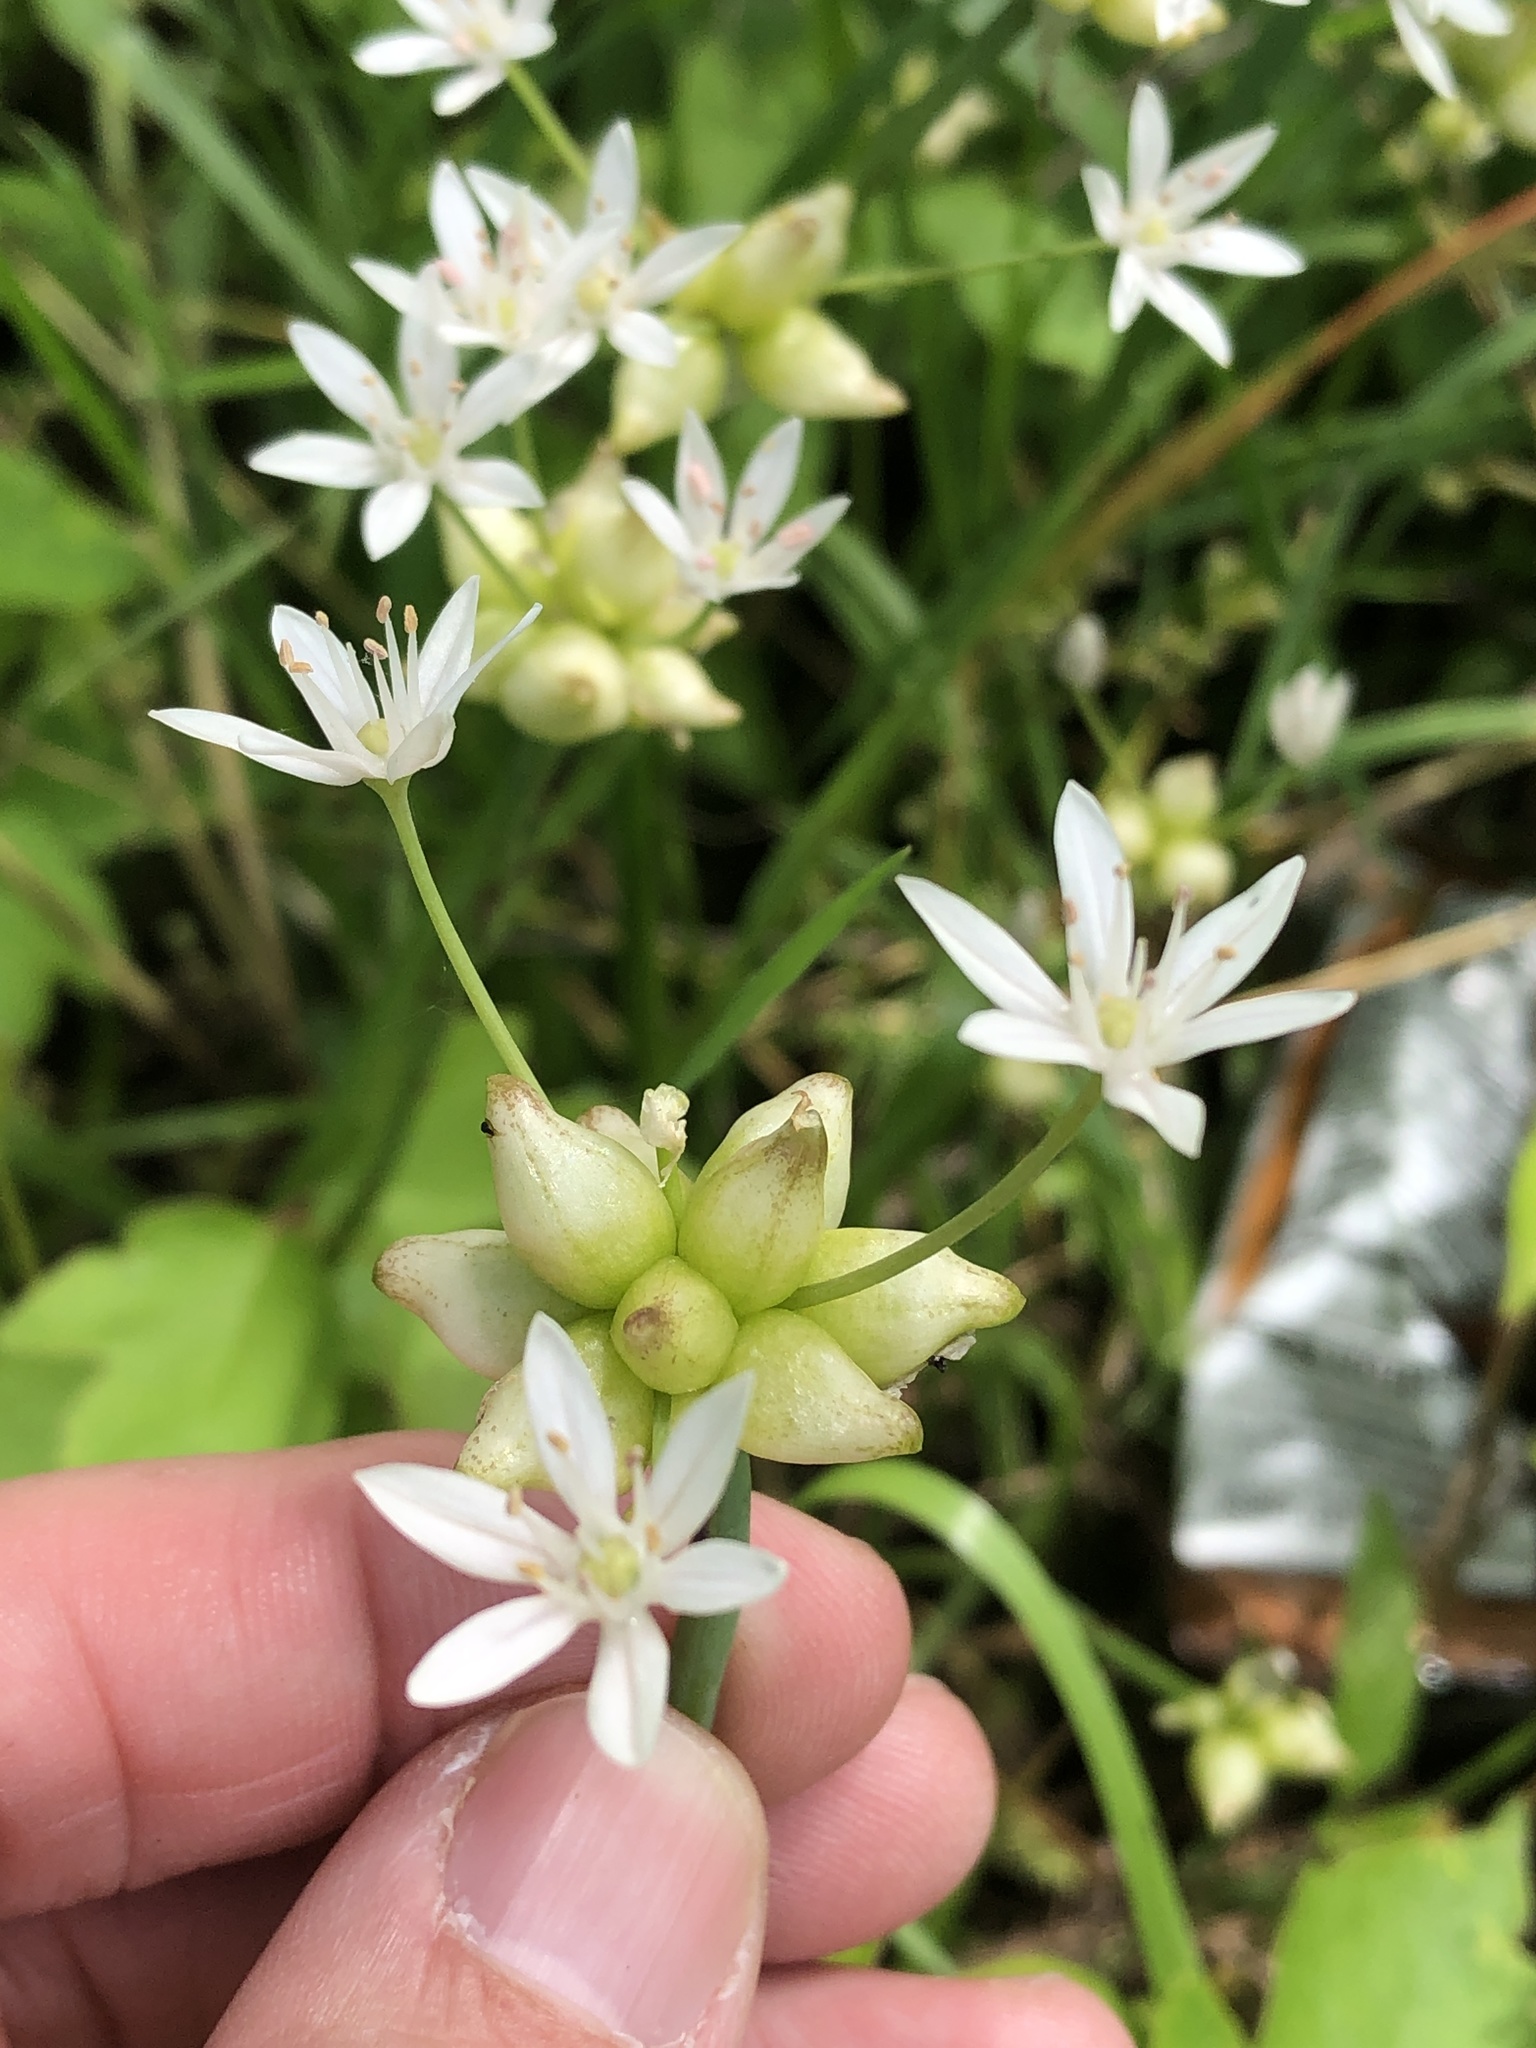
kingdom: Plantae
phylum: Tracheophyta
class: Liliopsida
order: Asparagales
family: Amaryllidaceae
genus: Allium
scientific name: Allium canadense
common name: Meadow garlic
